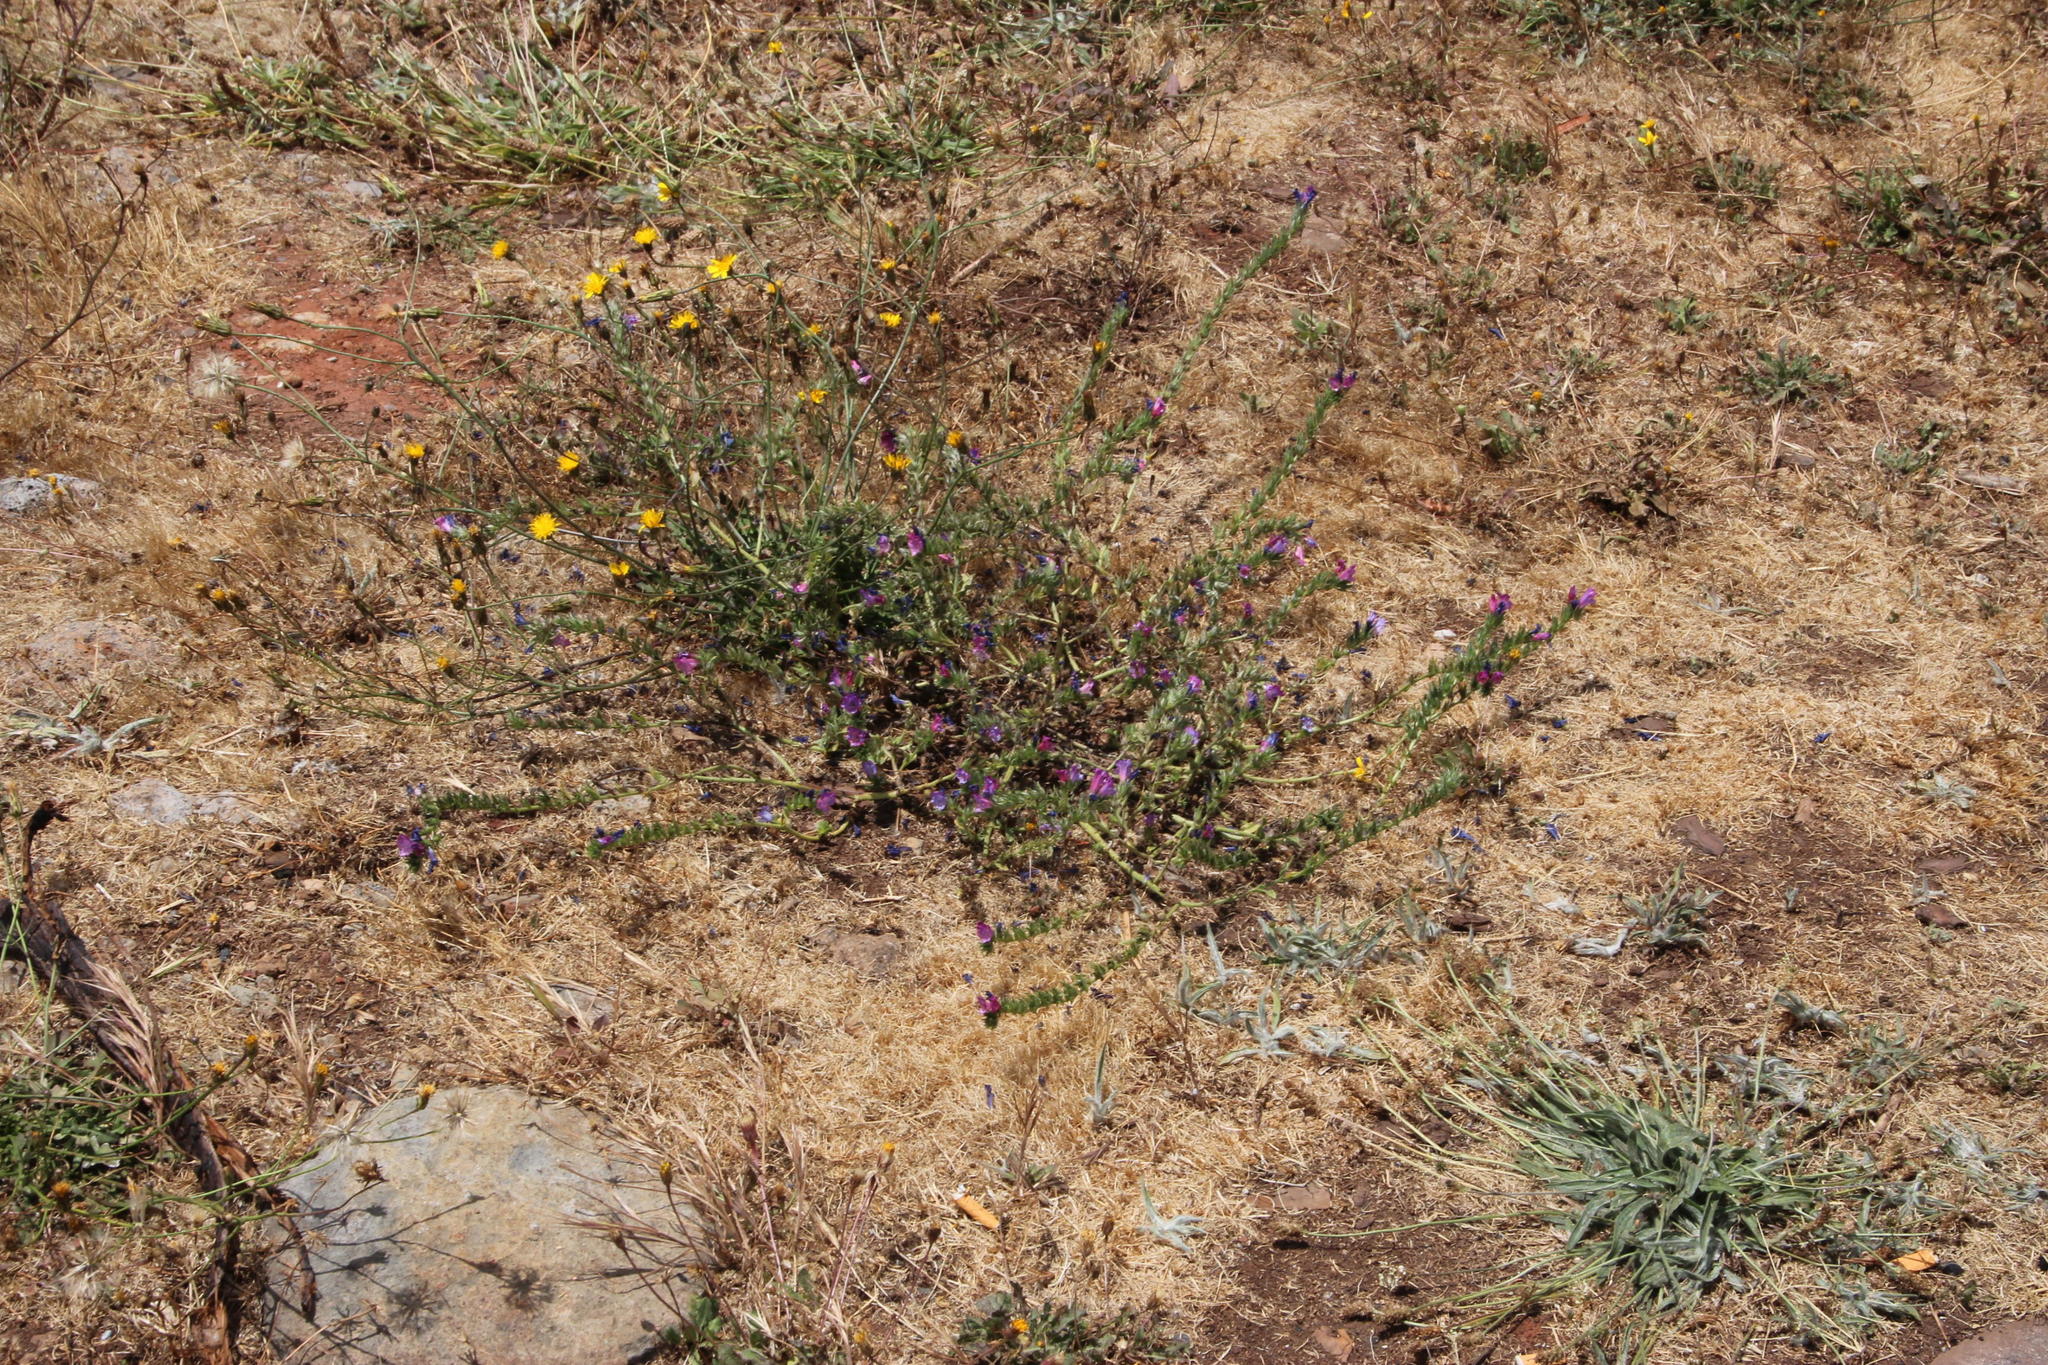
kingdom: Plantae
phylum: Tracheophyta
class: Magnoliopsida
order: Boraginales
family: Boraginaceae
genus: Echium
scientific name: Echium plantagineum
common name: Purple viper's-bugloss
